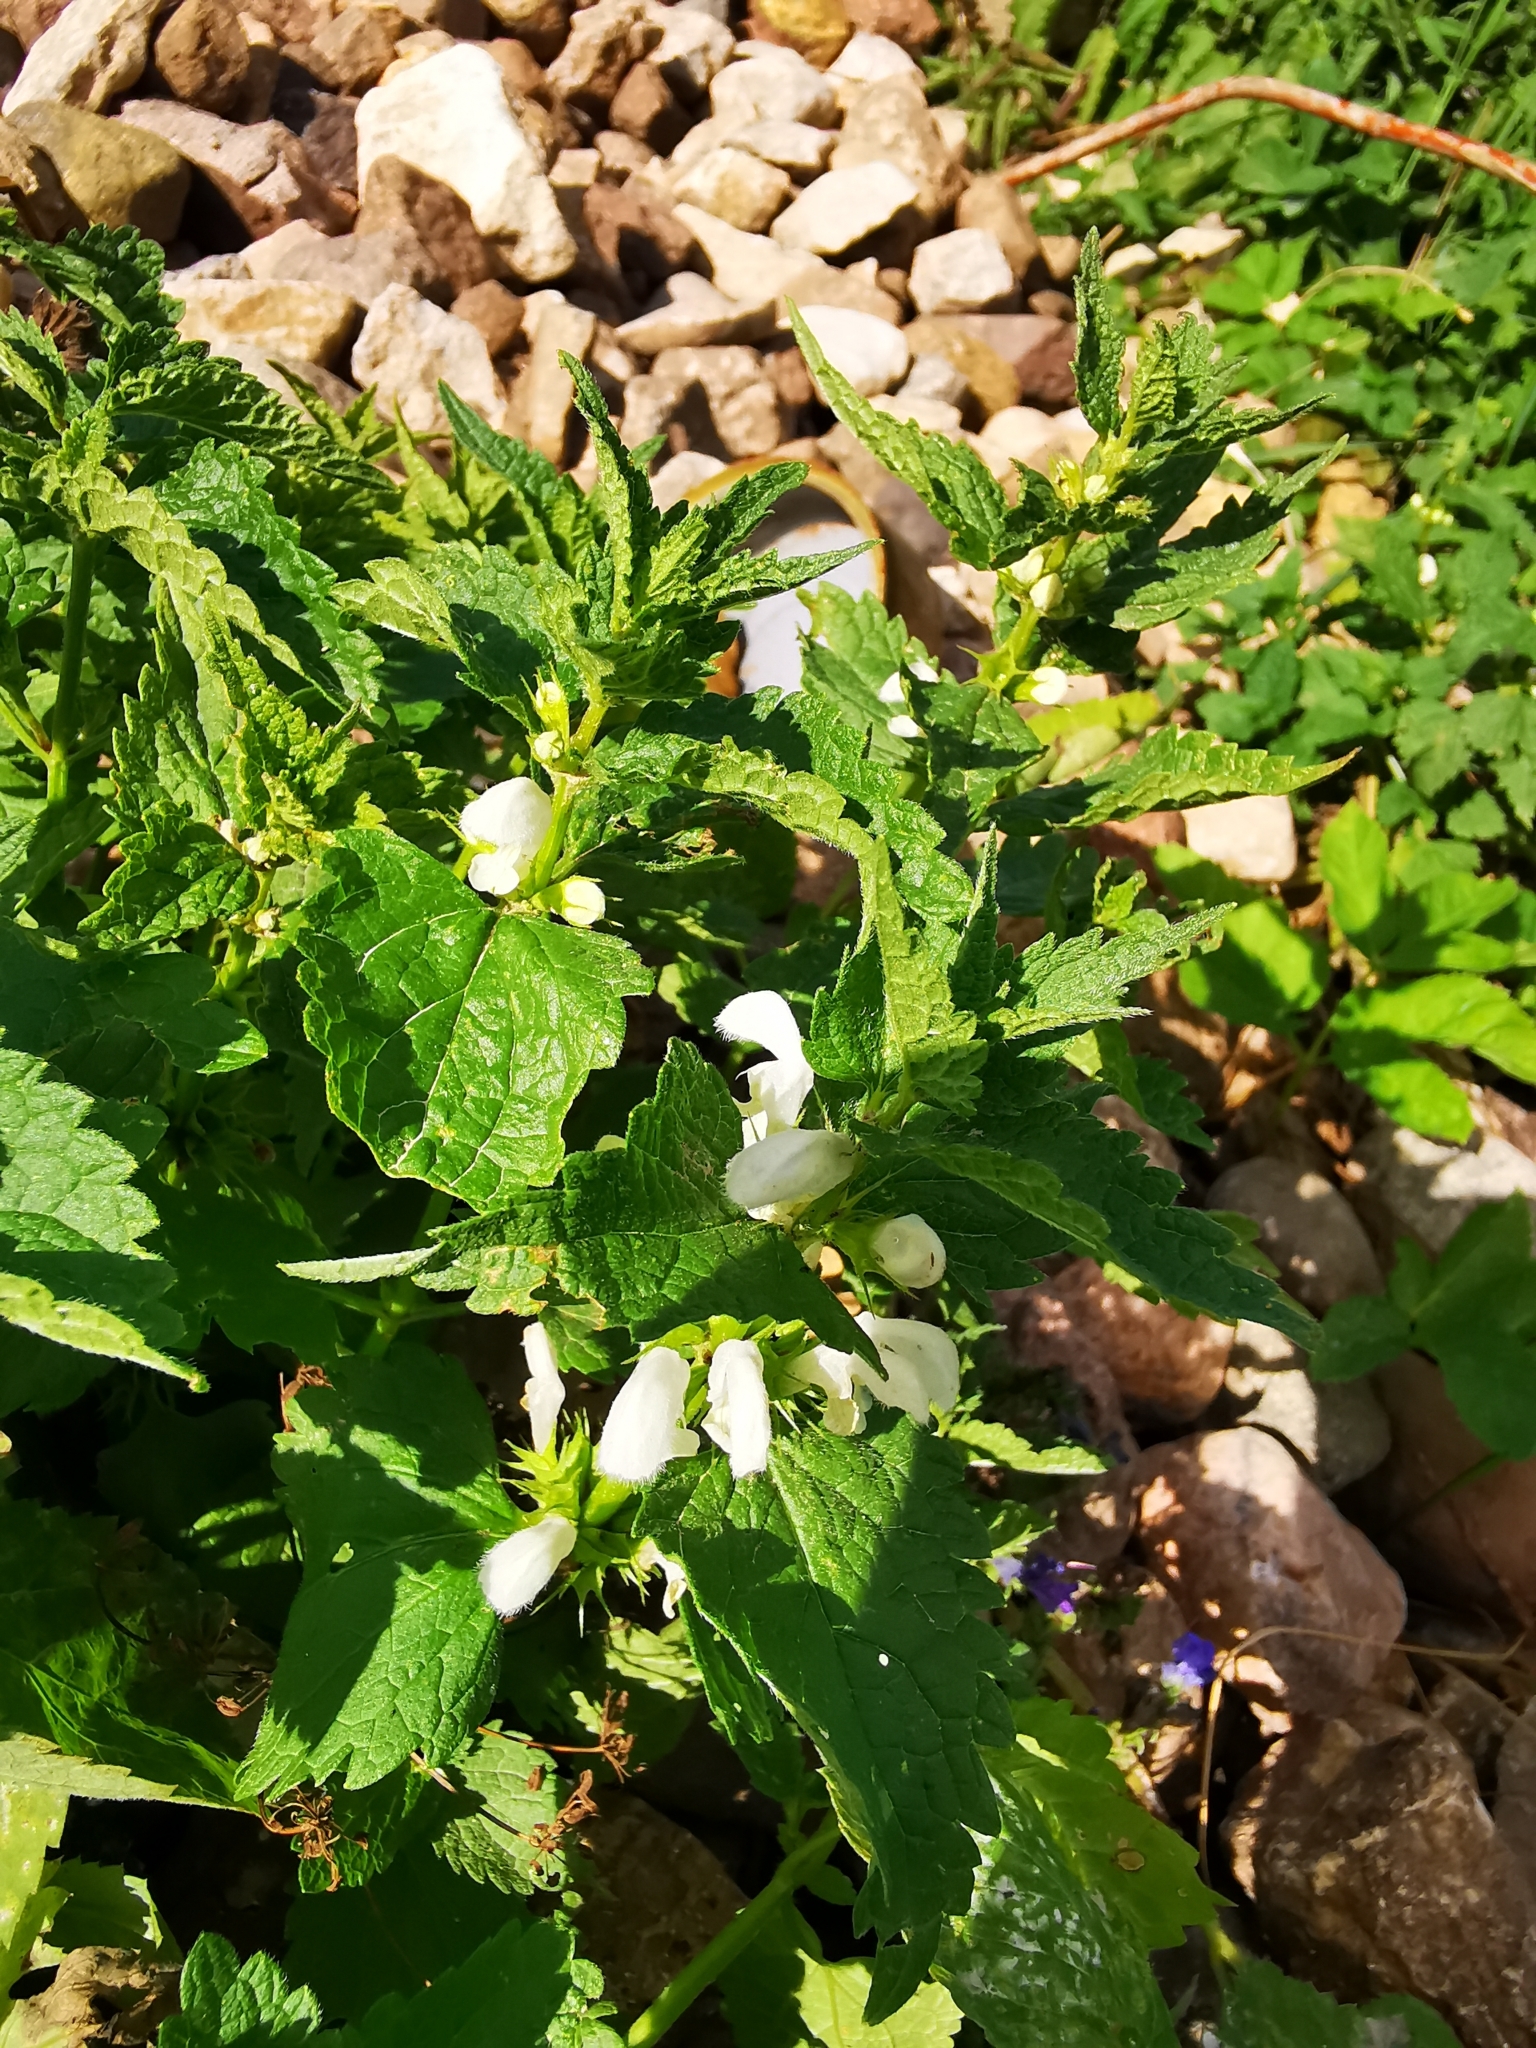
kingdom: Plantae
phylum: Tracheophyta
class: Magnoliopsida
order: Lamiales
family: Lamiaceae
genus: Lamium
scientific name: Lamium album
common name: White dead-nettle
